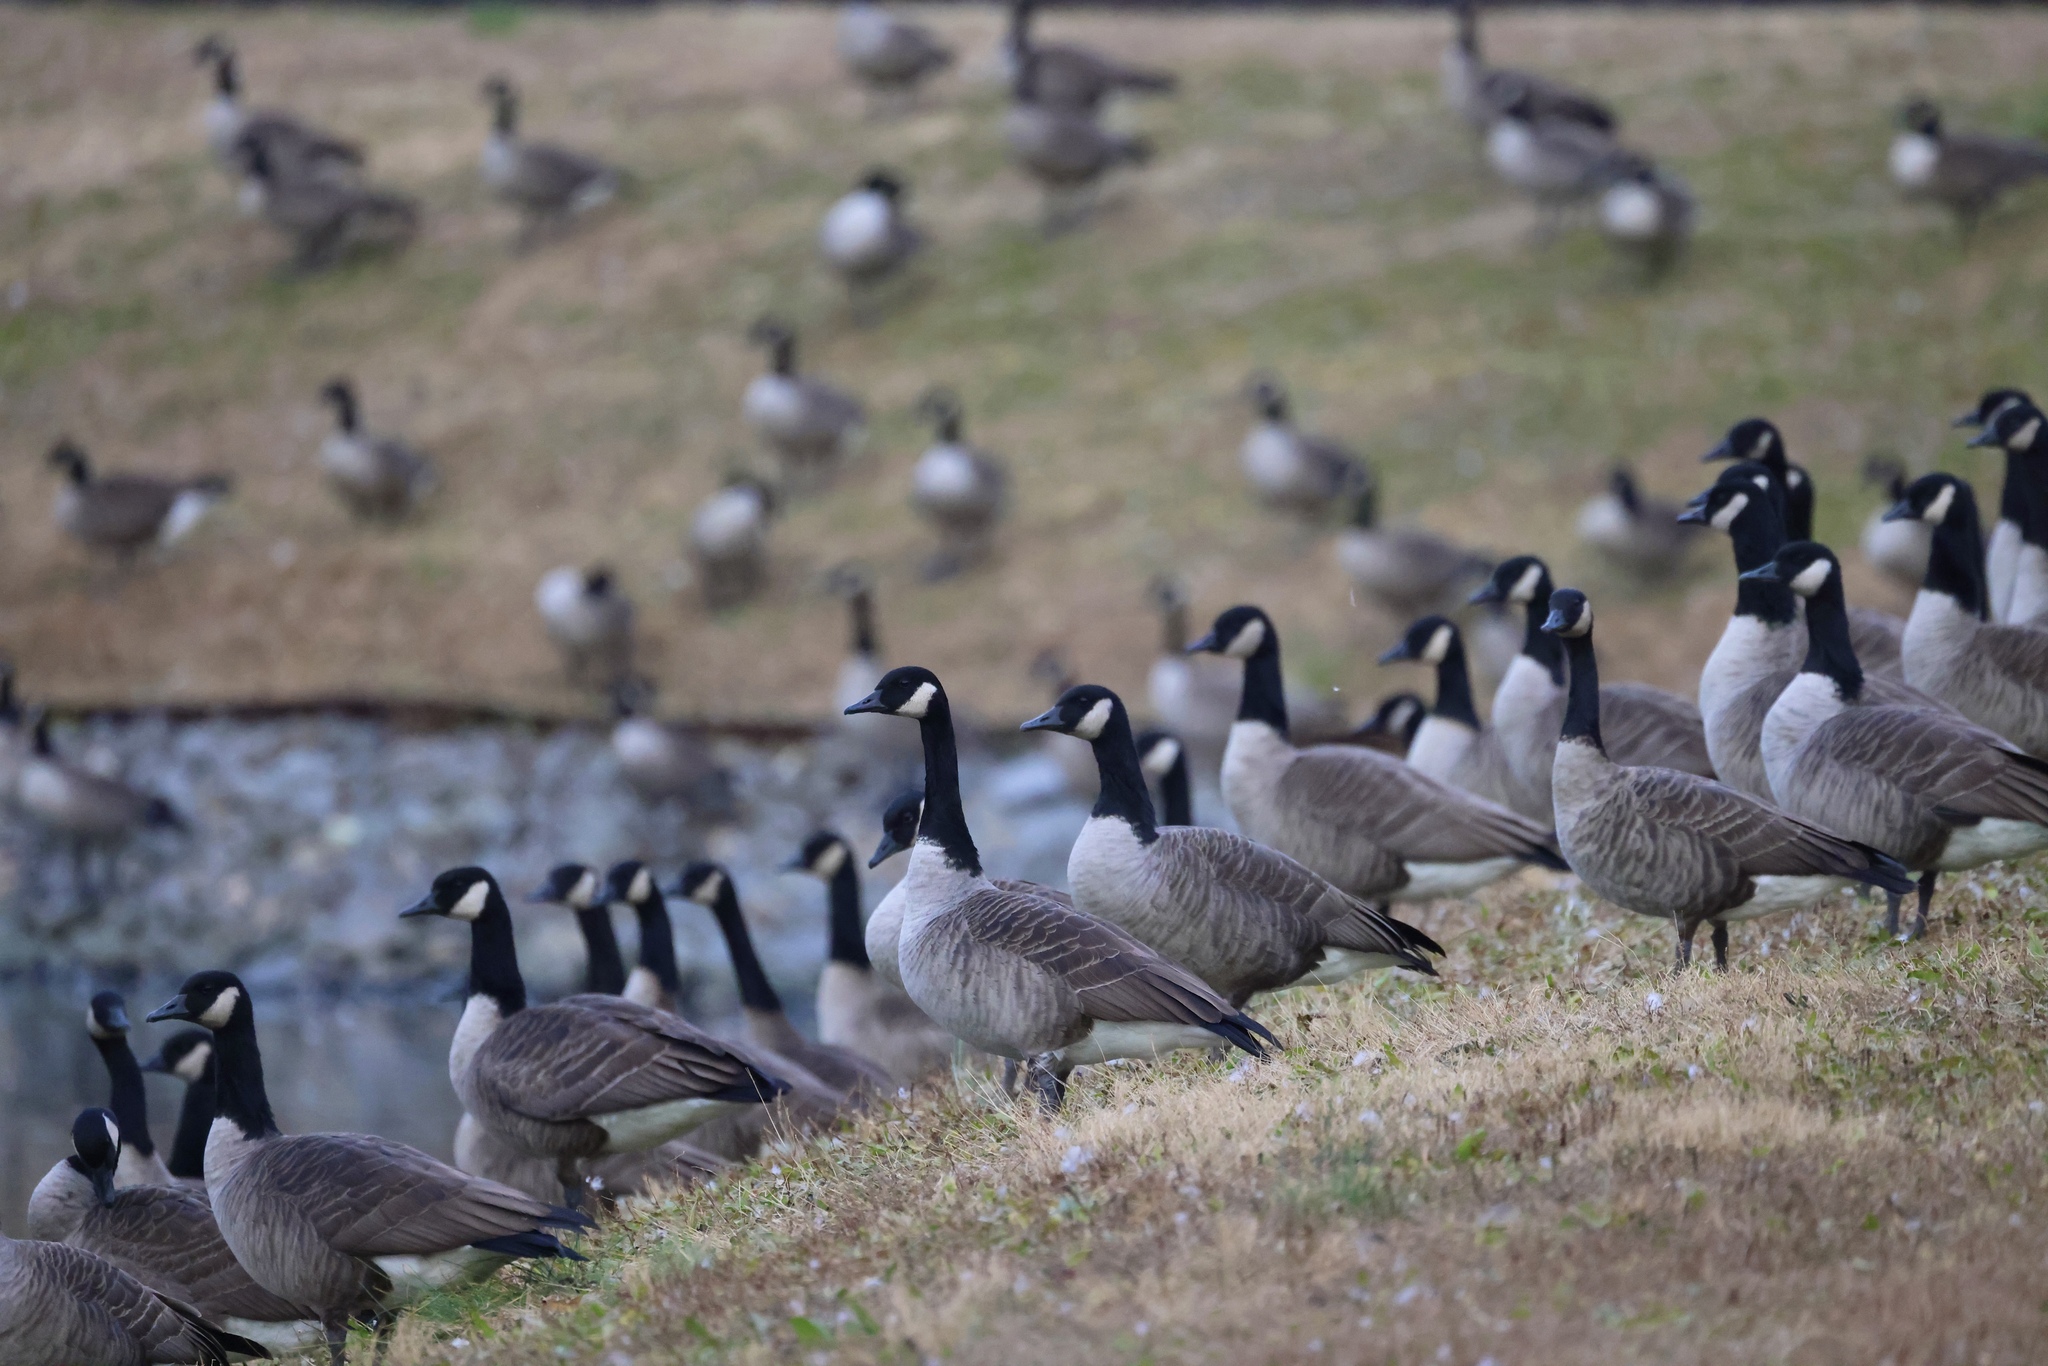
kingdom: Animalia
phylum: Chordata
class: Aves
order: Anseriformes
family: Anatidae
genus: Branta
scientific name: Branta canadensis
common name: Canada goose
